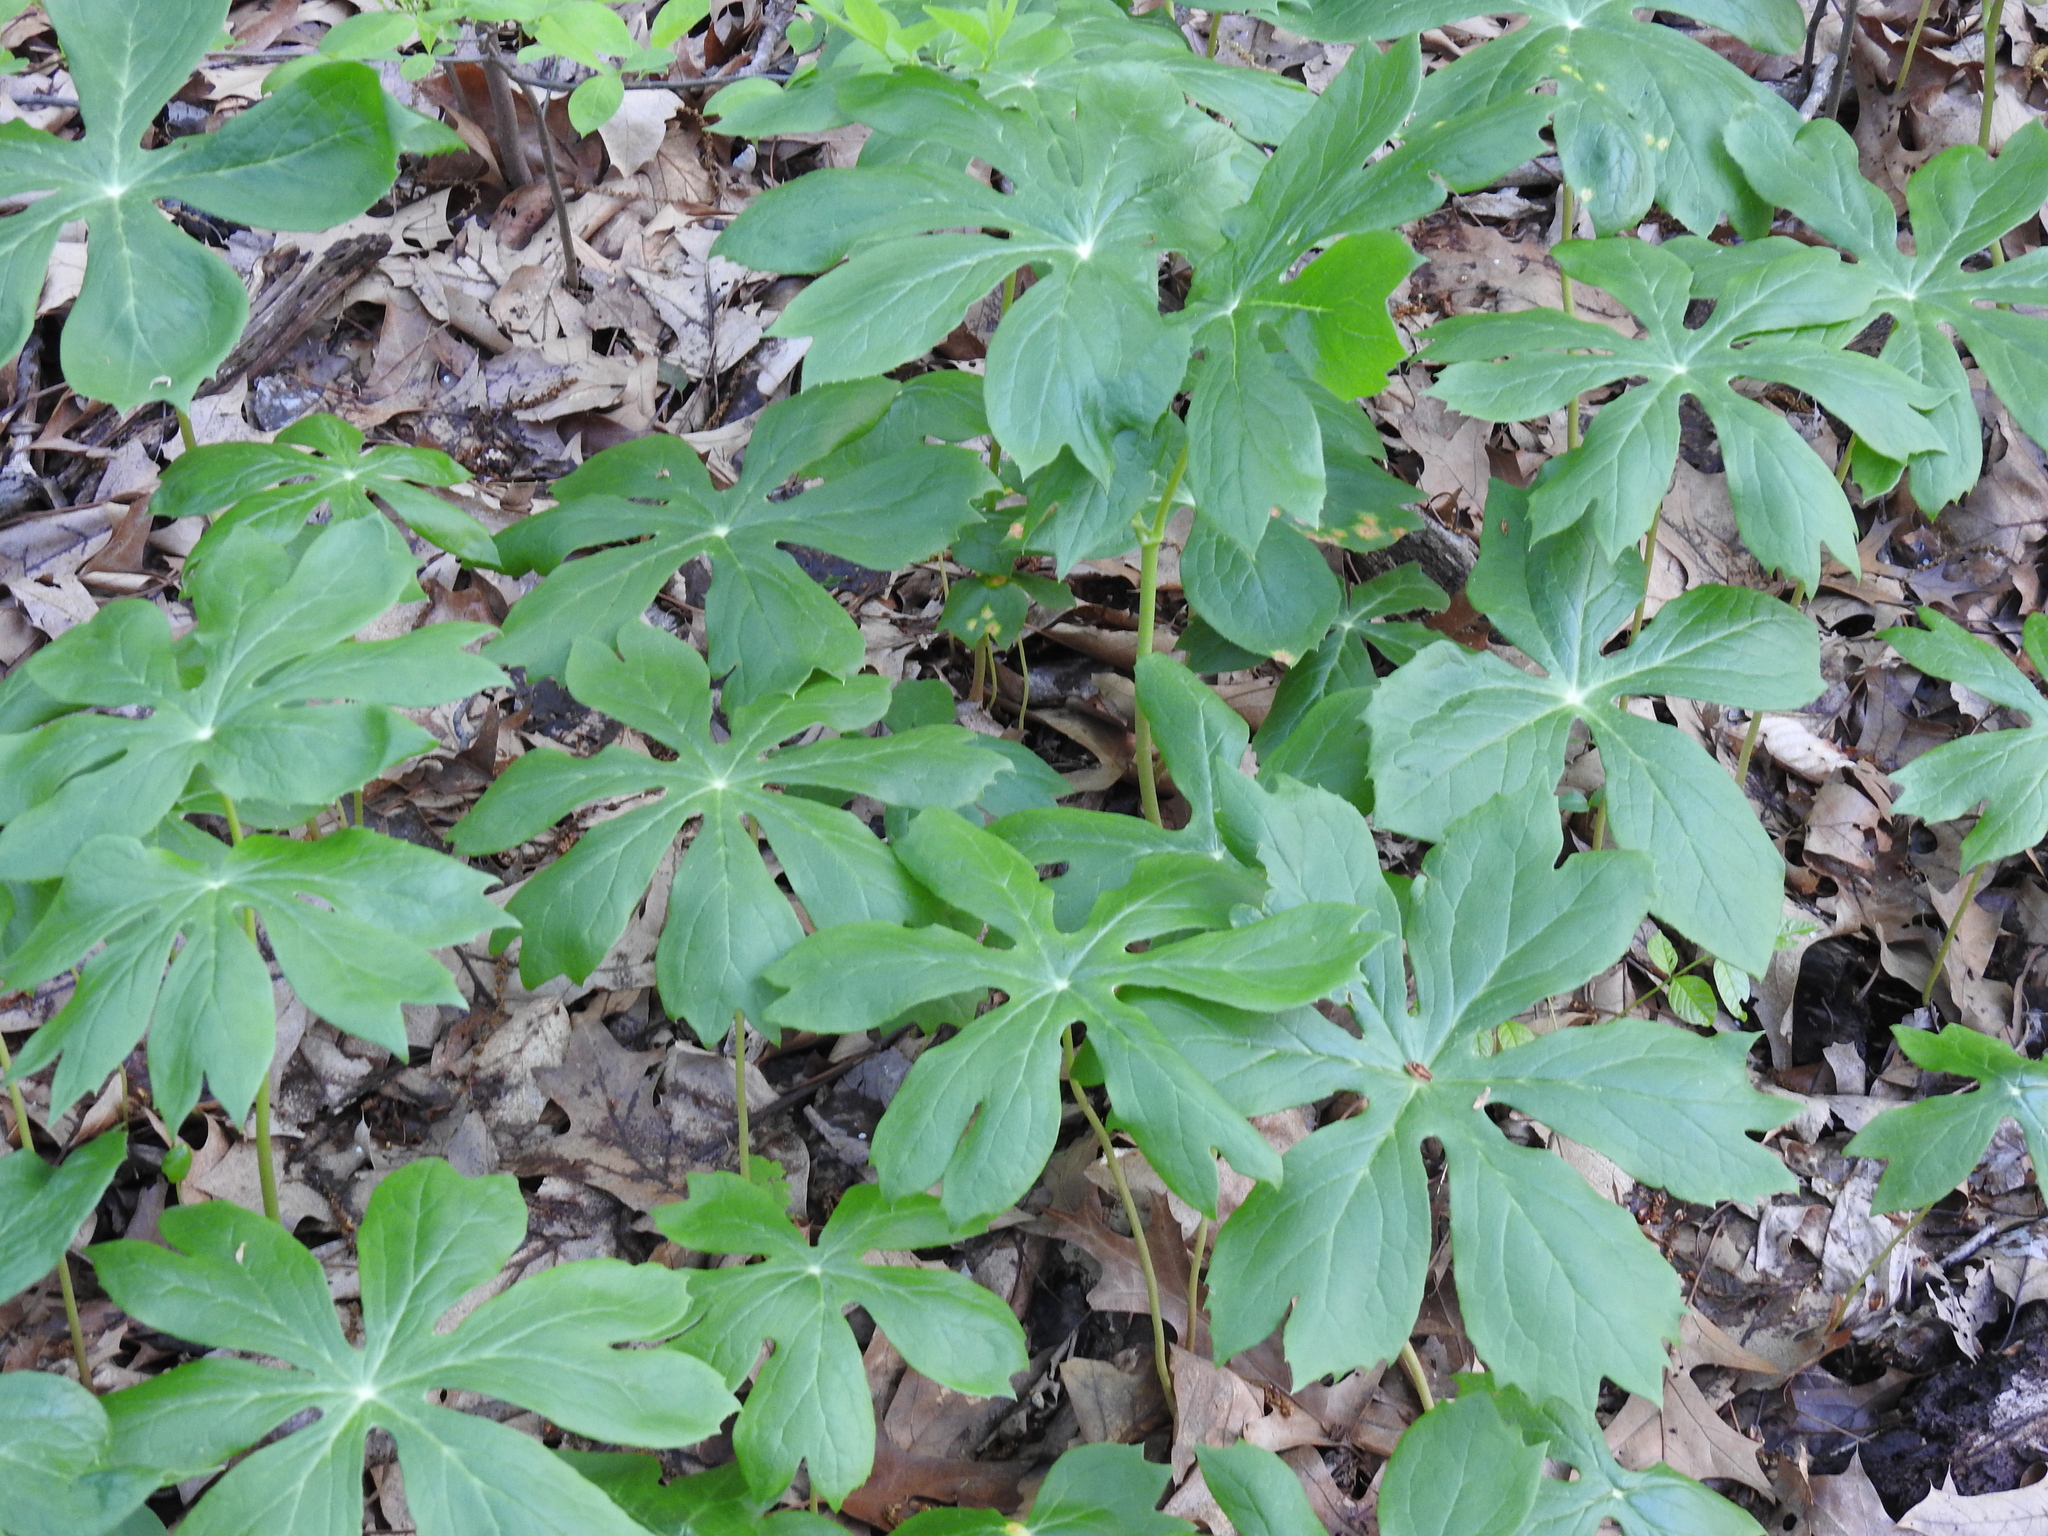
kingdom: Plantae
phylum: Tracheophyta
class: Magnoliopsida
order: Ranunculales
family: Berberidaceae
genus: Podophyllum
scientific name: Podophyllum peltatum
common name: Wild mandrake
